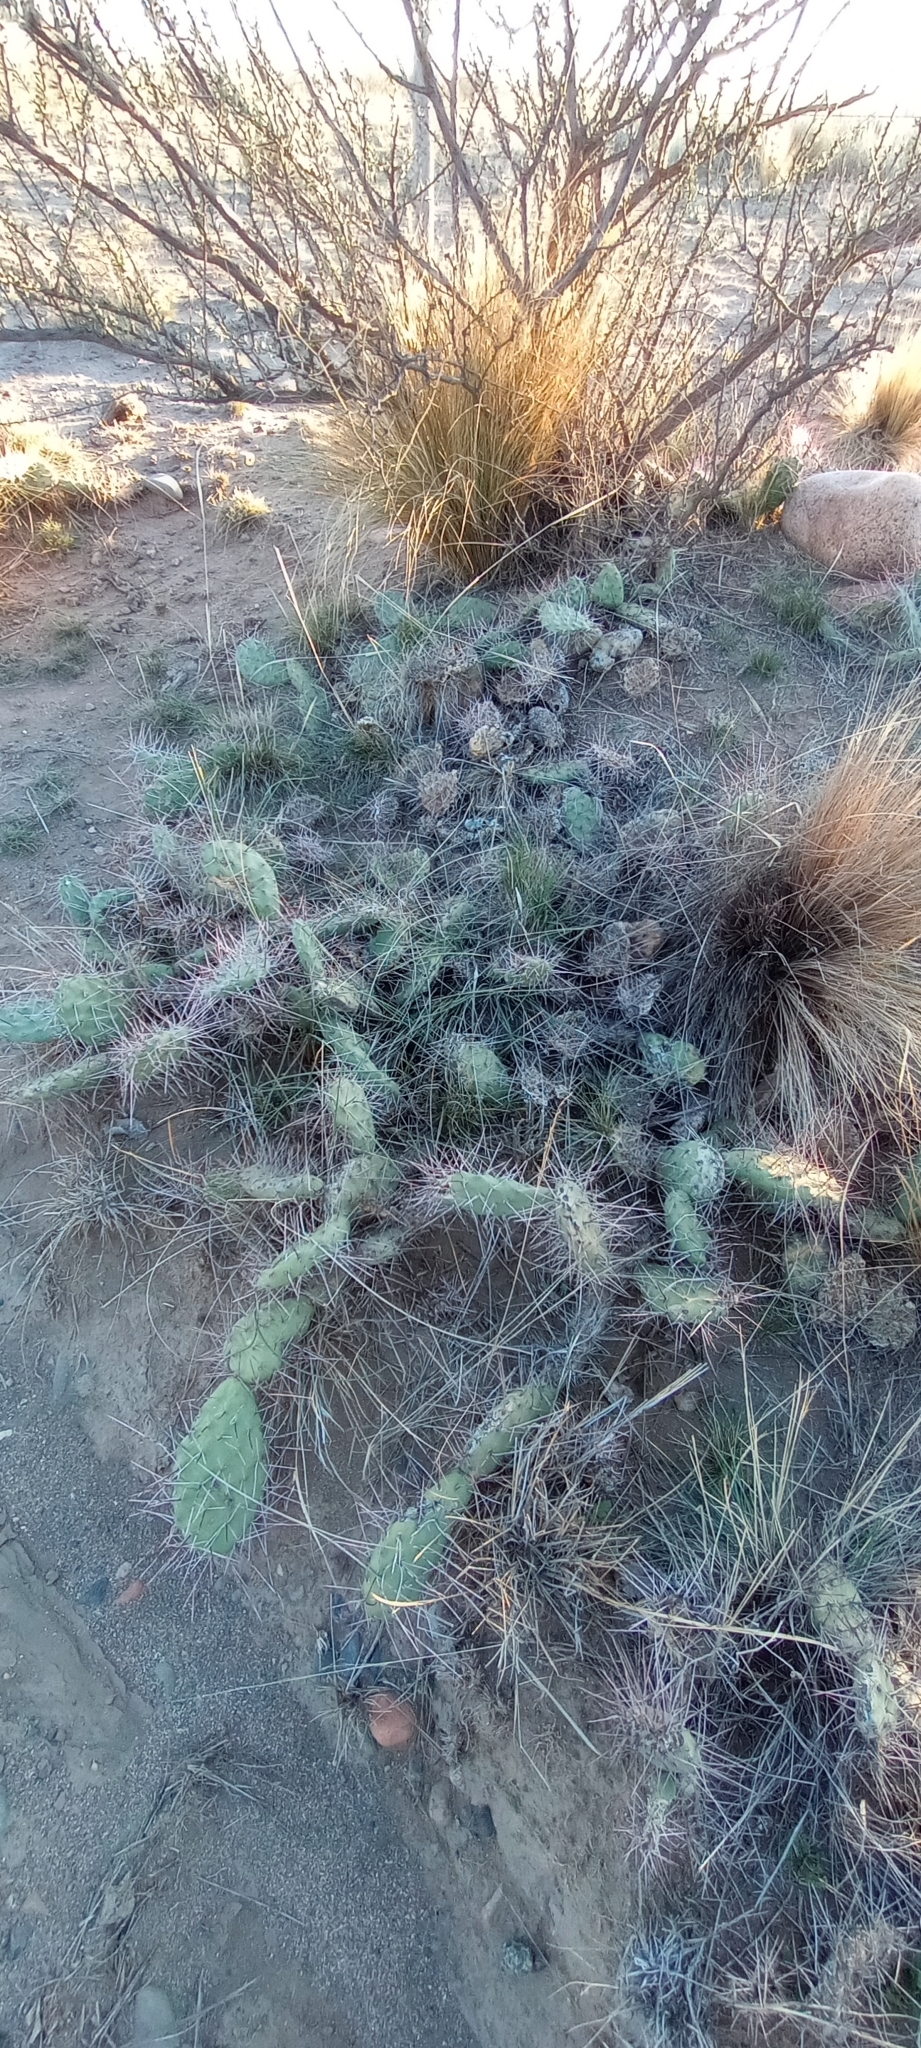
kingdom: Plantae
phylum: Tracheophyta
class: Magnoliopsida
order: Caryophyllales
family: Cactaceae
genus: Opuntia
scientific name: Opuntia sulphurea
